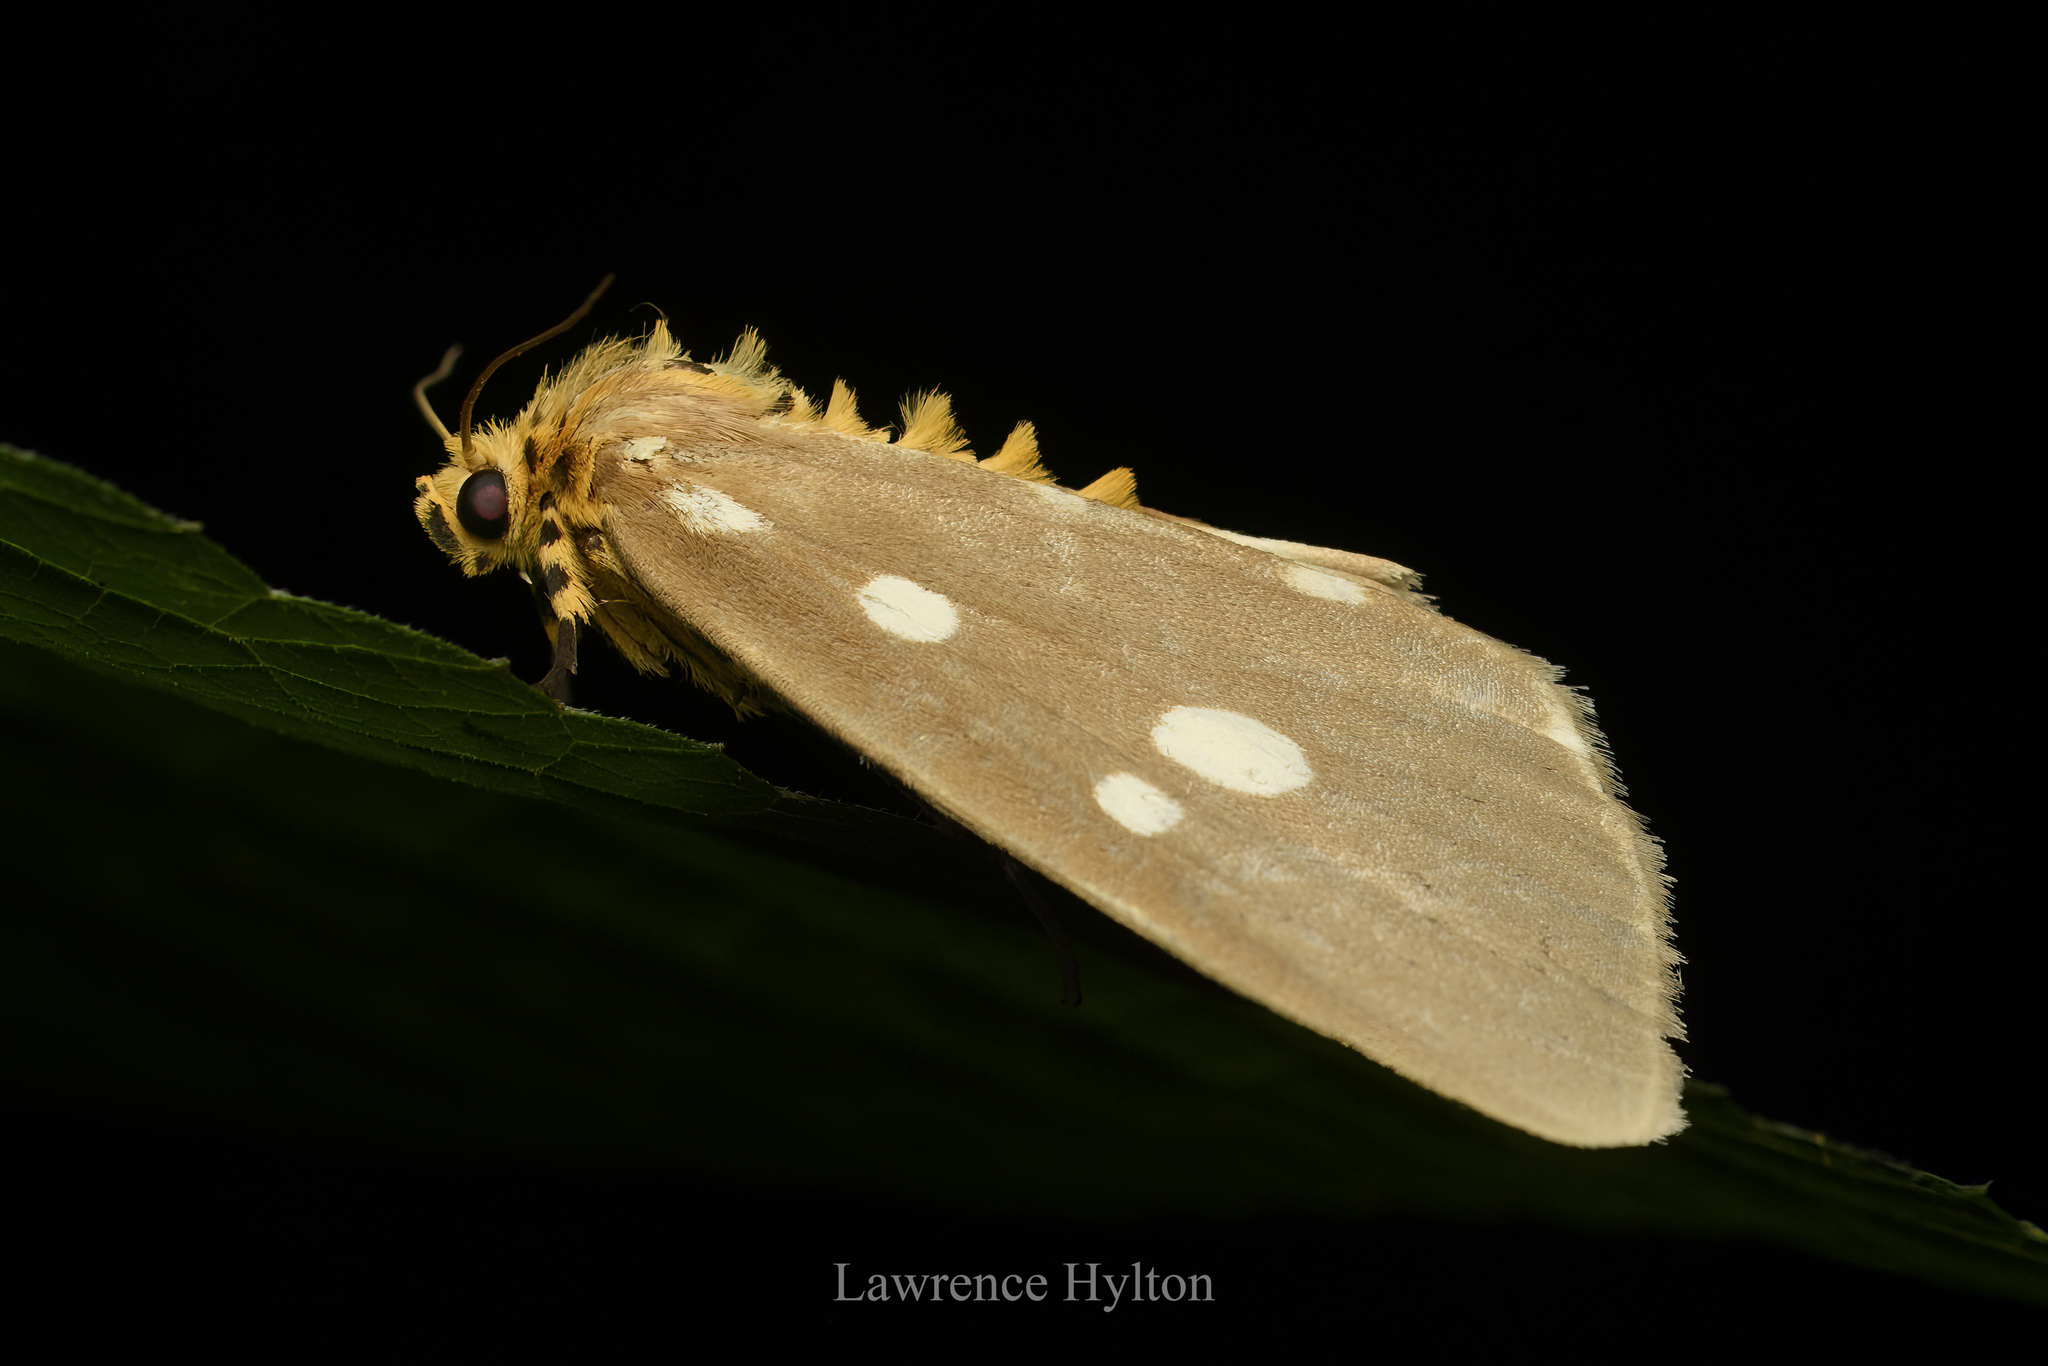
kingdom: Animalia
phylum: Arthropoda
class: Insecta
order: Lepidoptera
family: Erebidae
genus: Tinolius
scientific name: Tinolius hypsana
